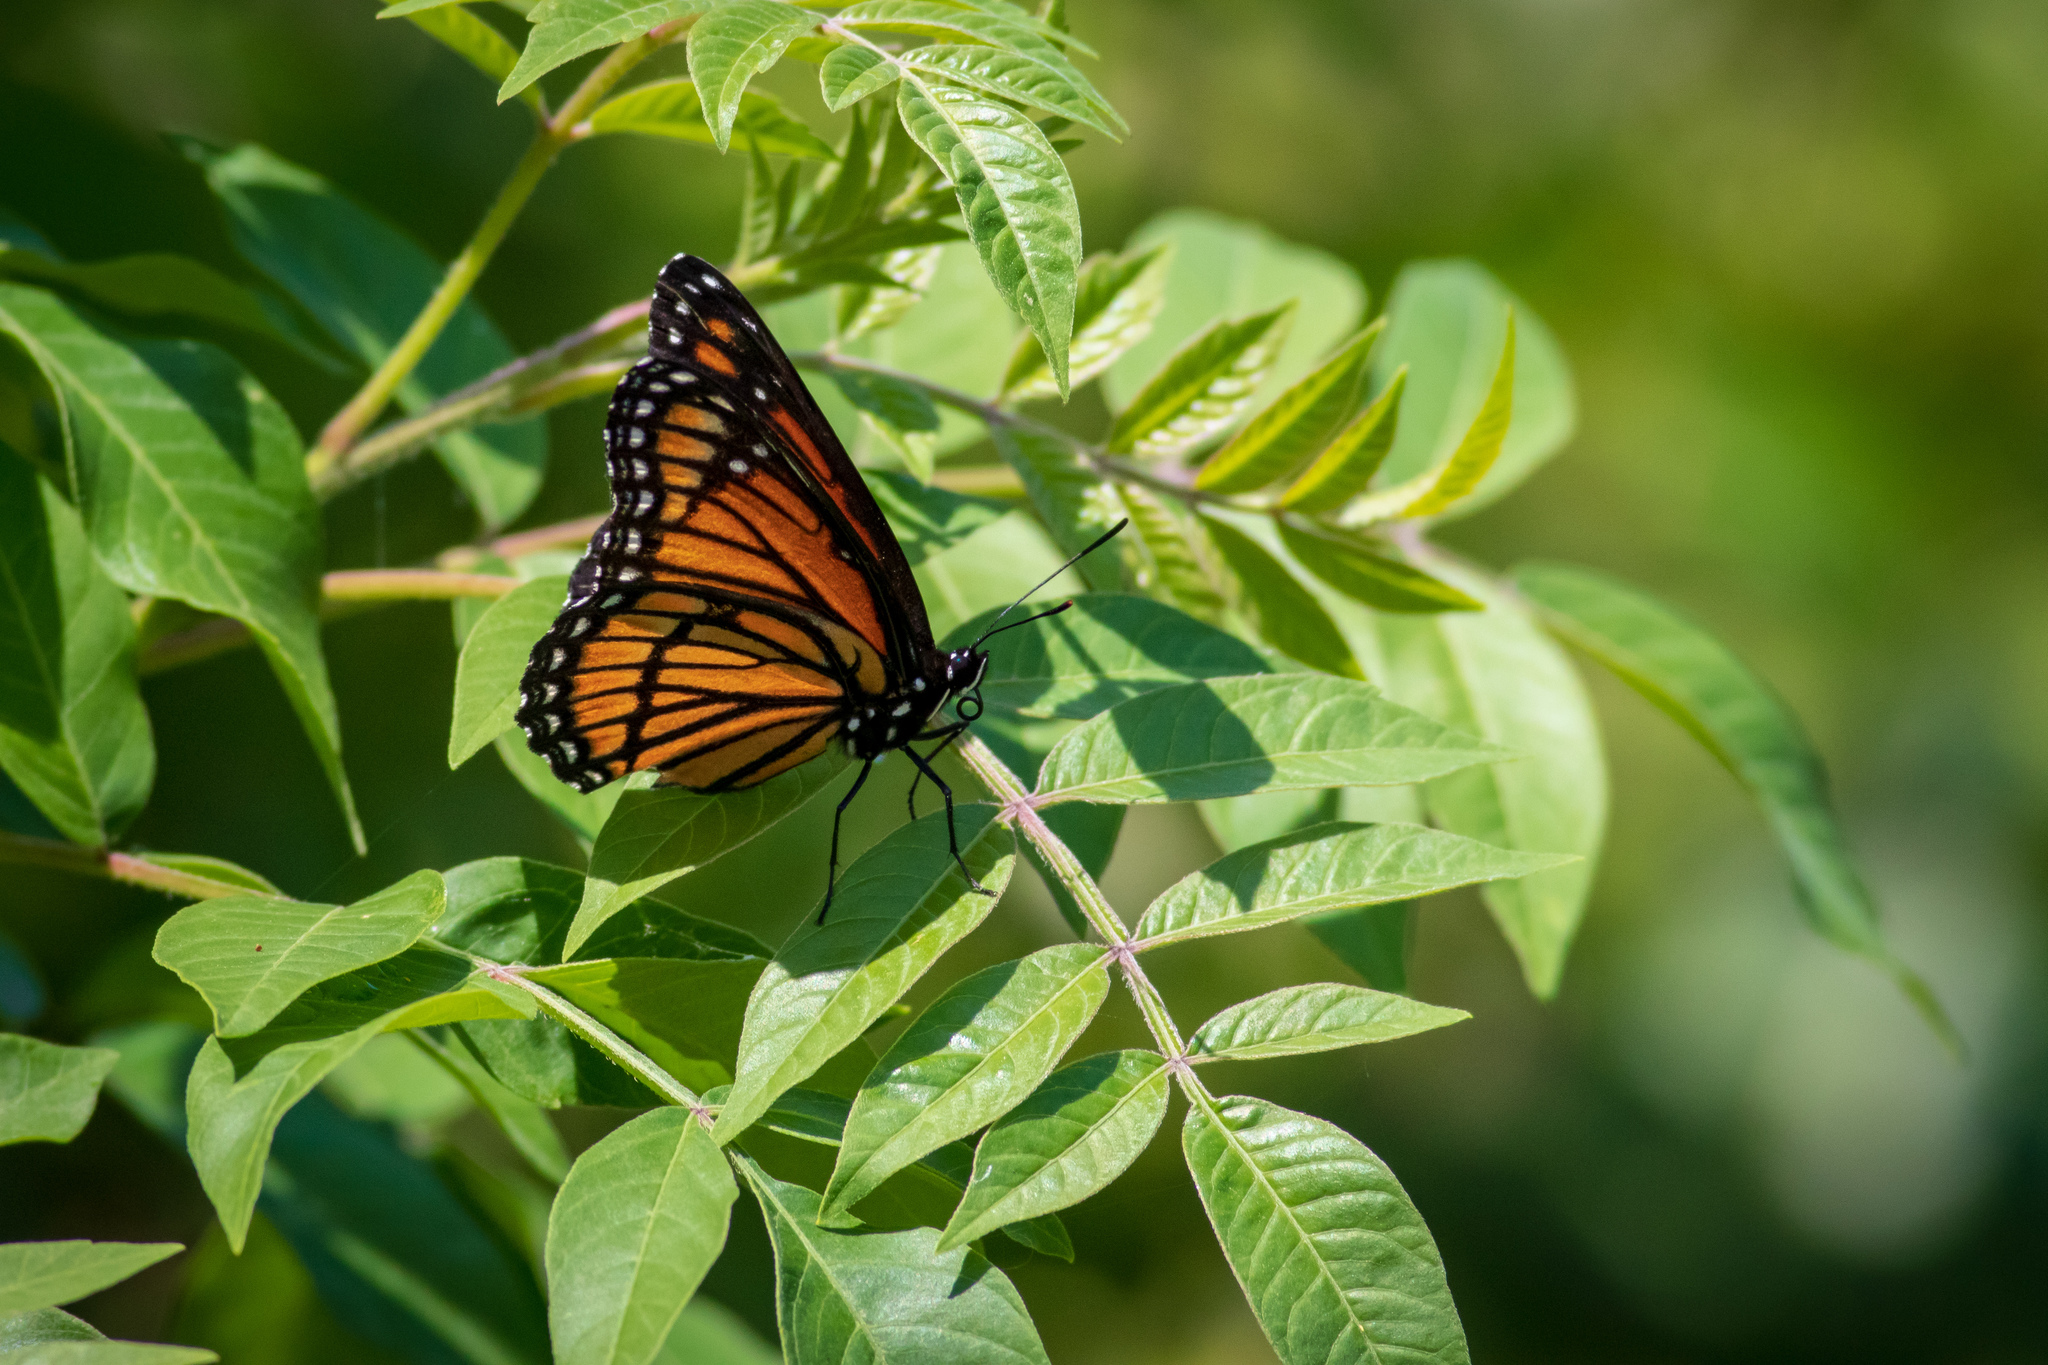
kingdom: Animalia
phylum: Arthropoda
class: Insecta
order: Lepidoptera
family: Nymphalidae
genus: Limenitis
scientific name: Limenitis archippus
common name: Viceroy
